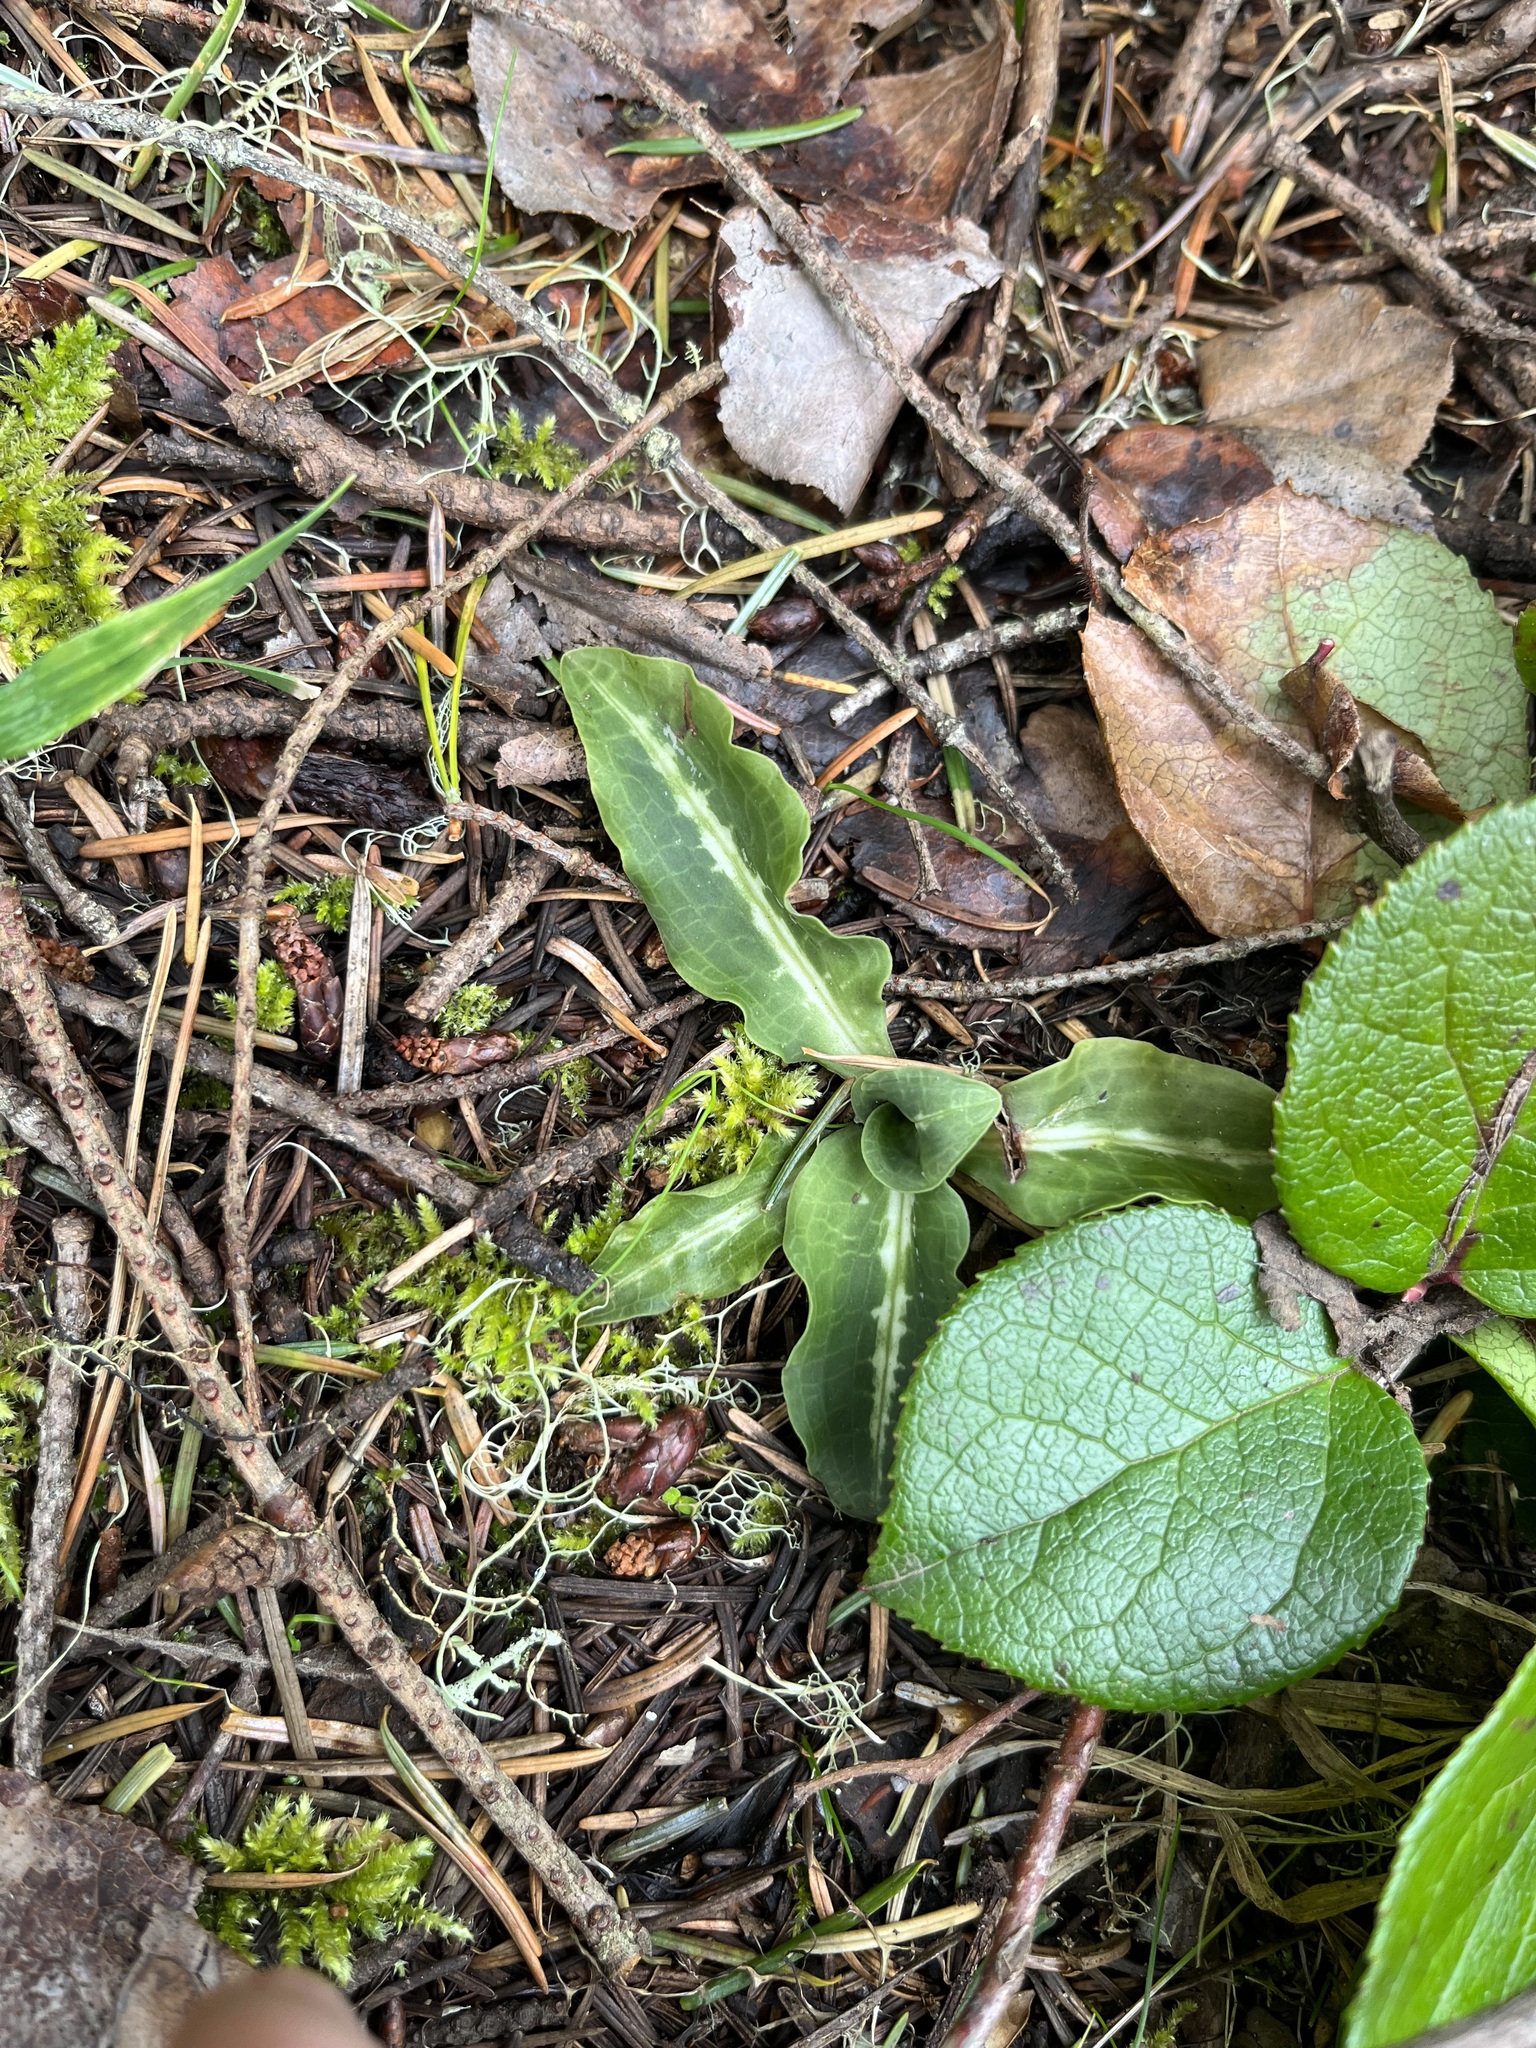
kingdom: Plantae
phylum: Tracheophyta
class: Liliopsida
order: Asparagales
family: Orchidaceae
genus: Goodyera
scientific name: Goodyera oblongifolia
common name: Giant rattlesnake-plantain
